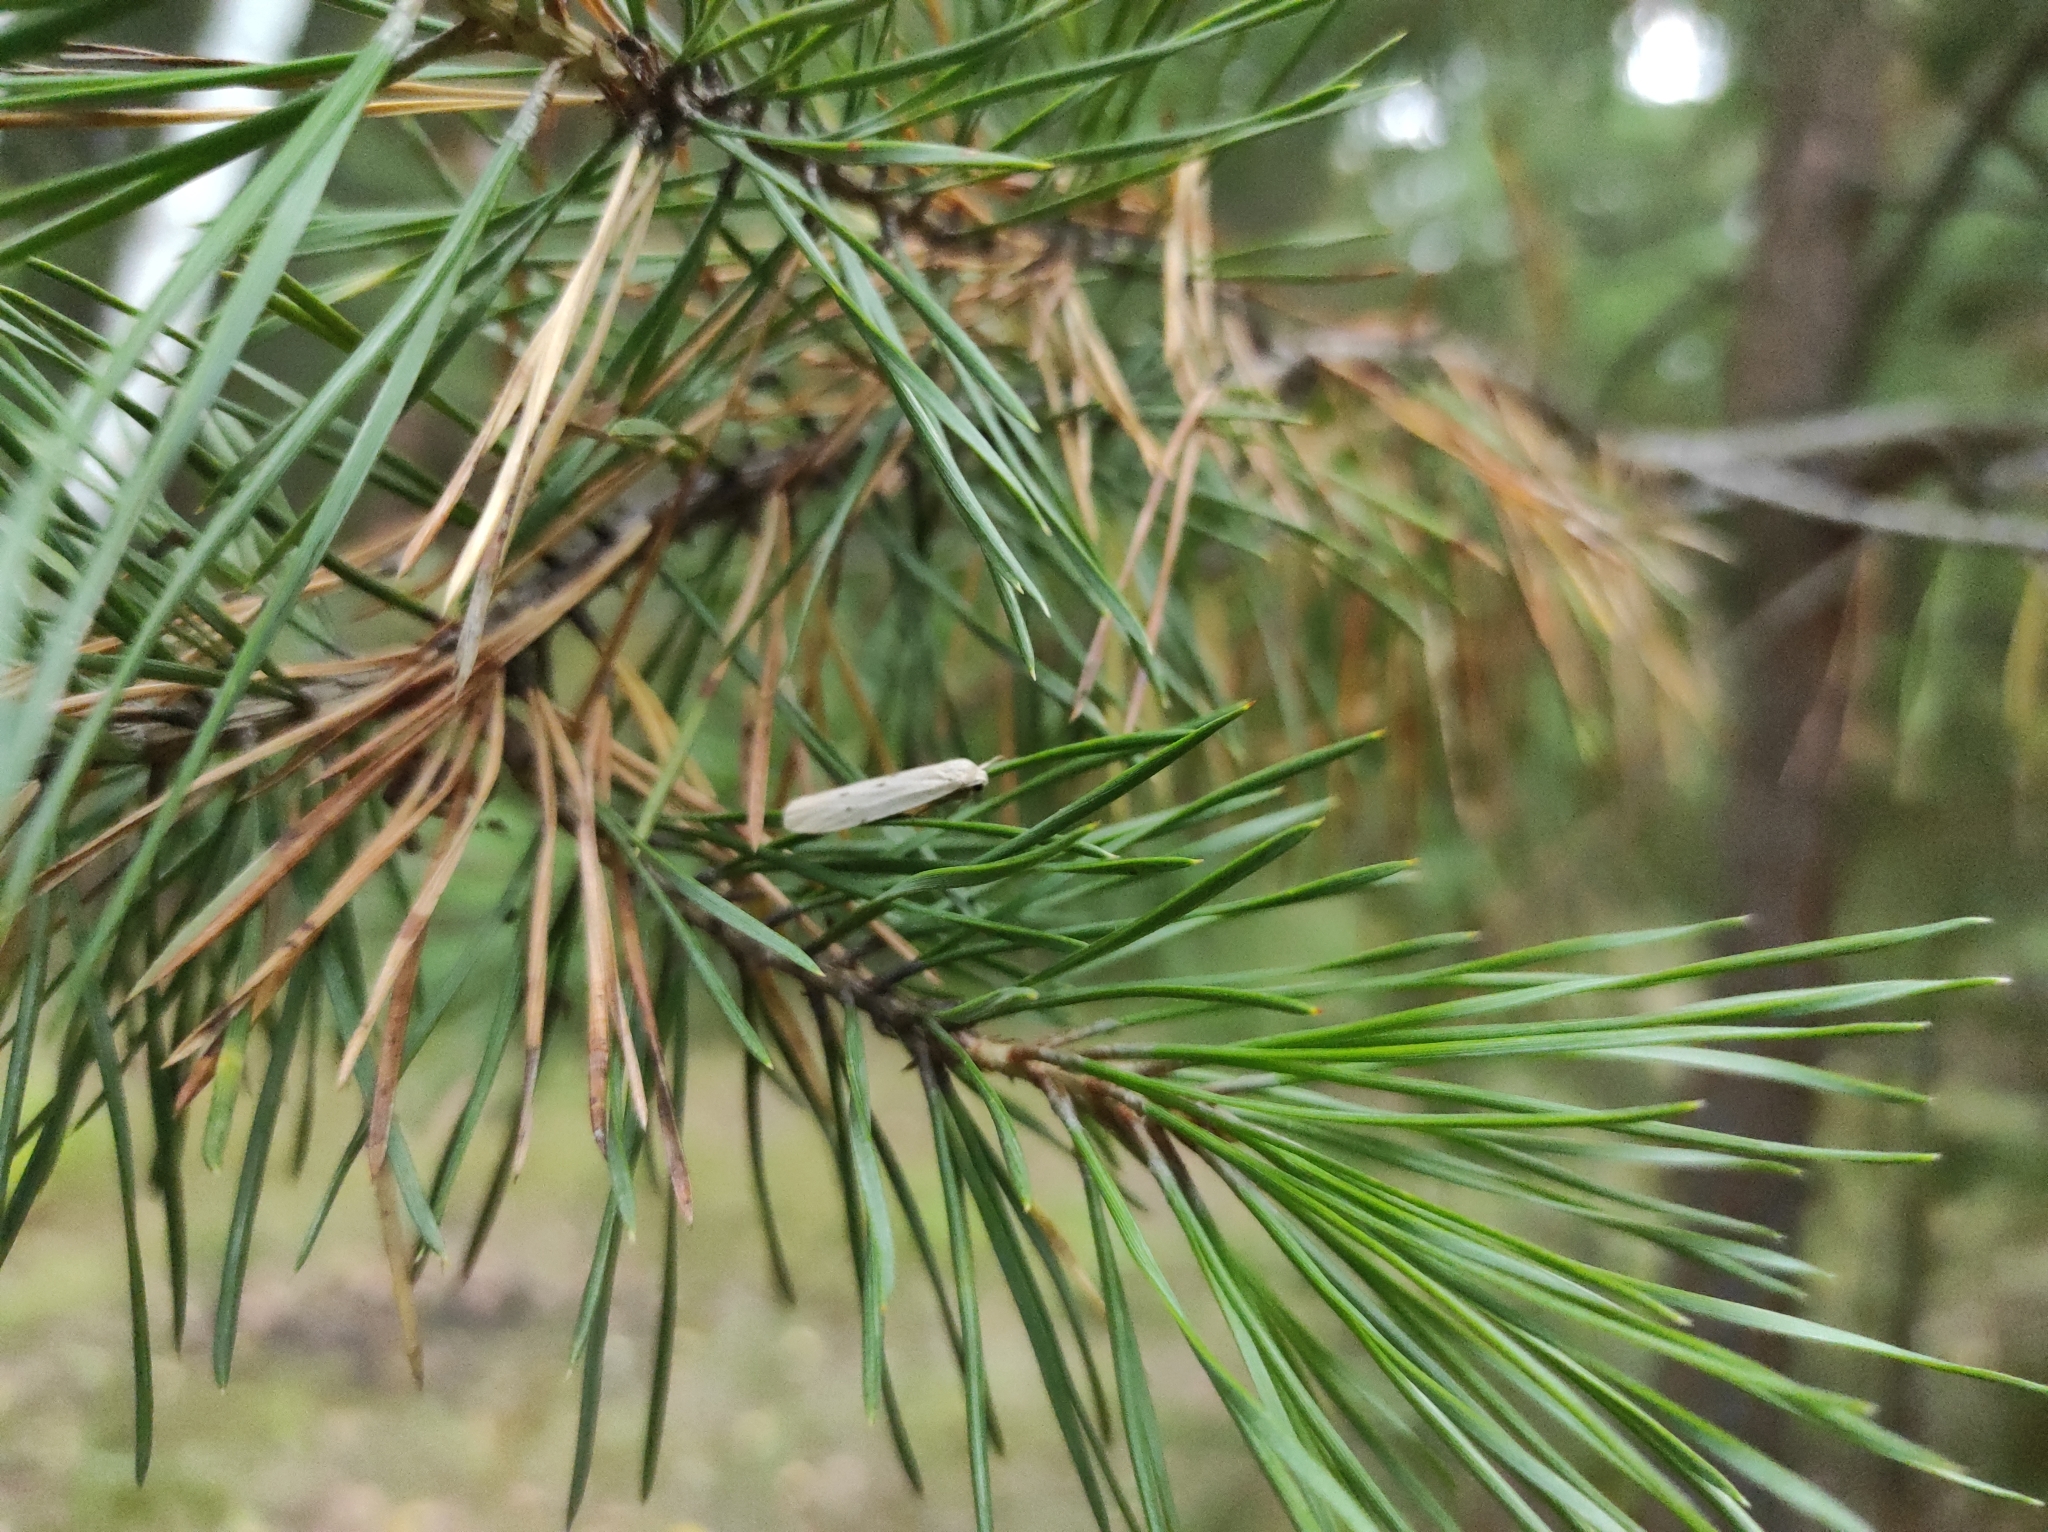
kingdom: Plantae
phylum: Tracheophyta
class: Pinopsida
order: Pinales
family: Pinaceae
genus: Pinus
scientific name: Pinus sylvestris
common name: Scots pine
